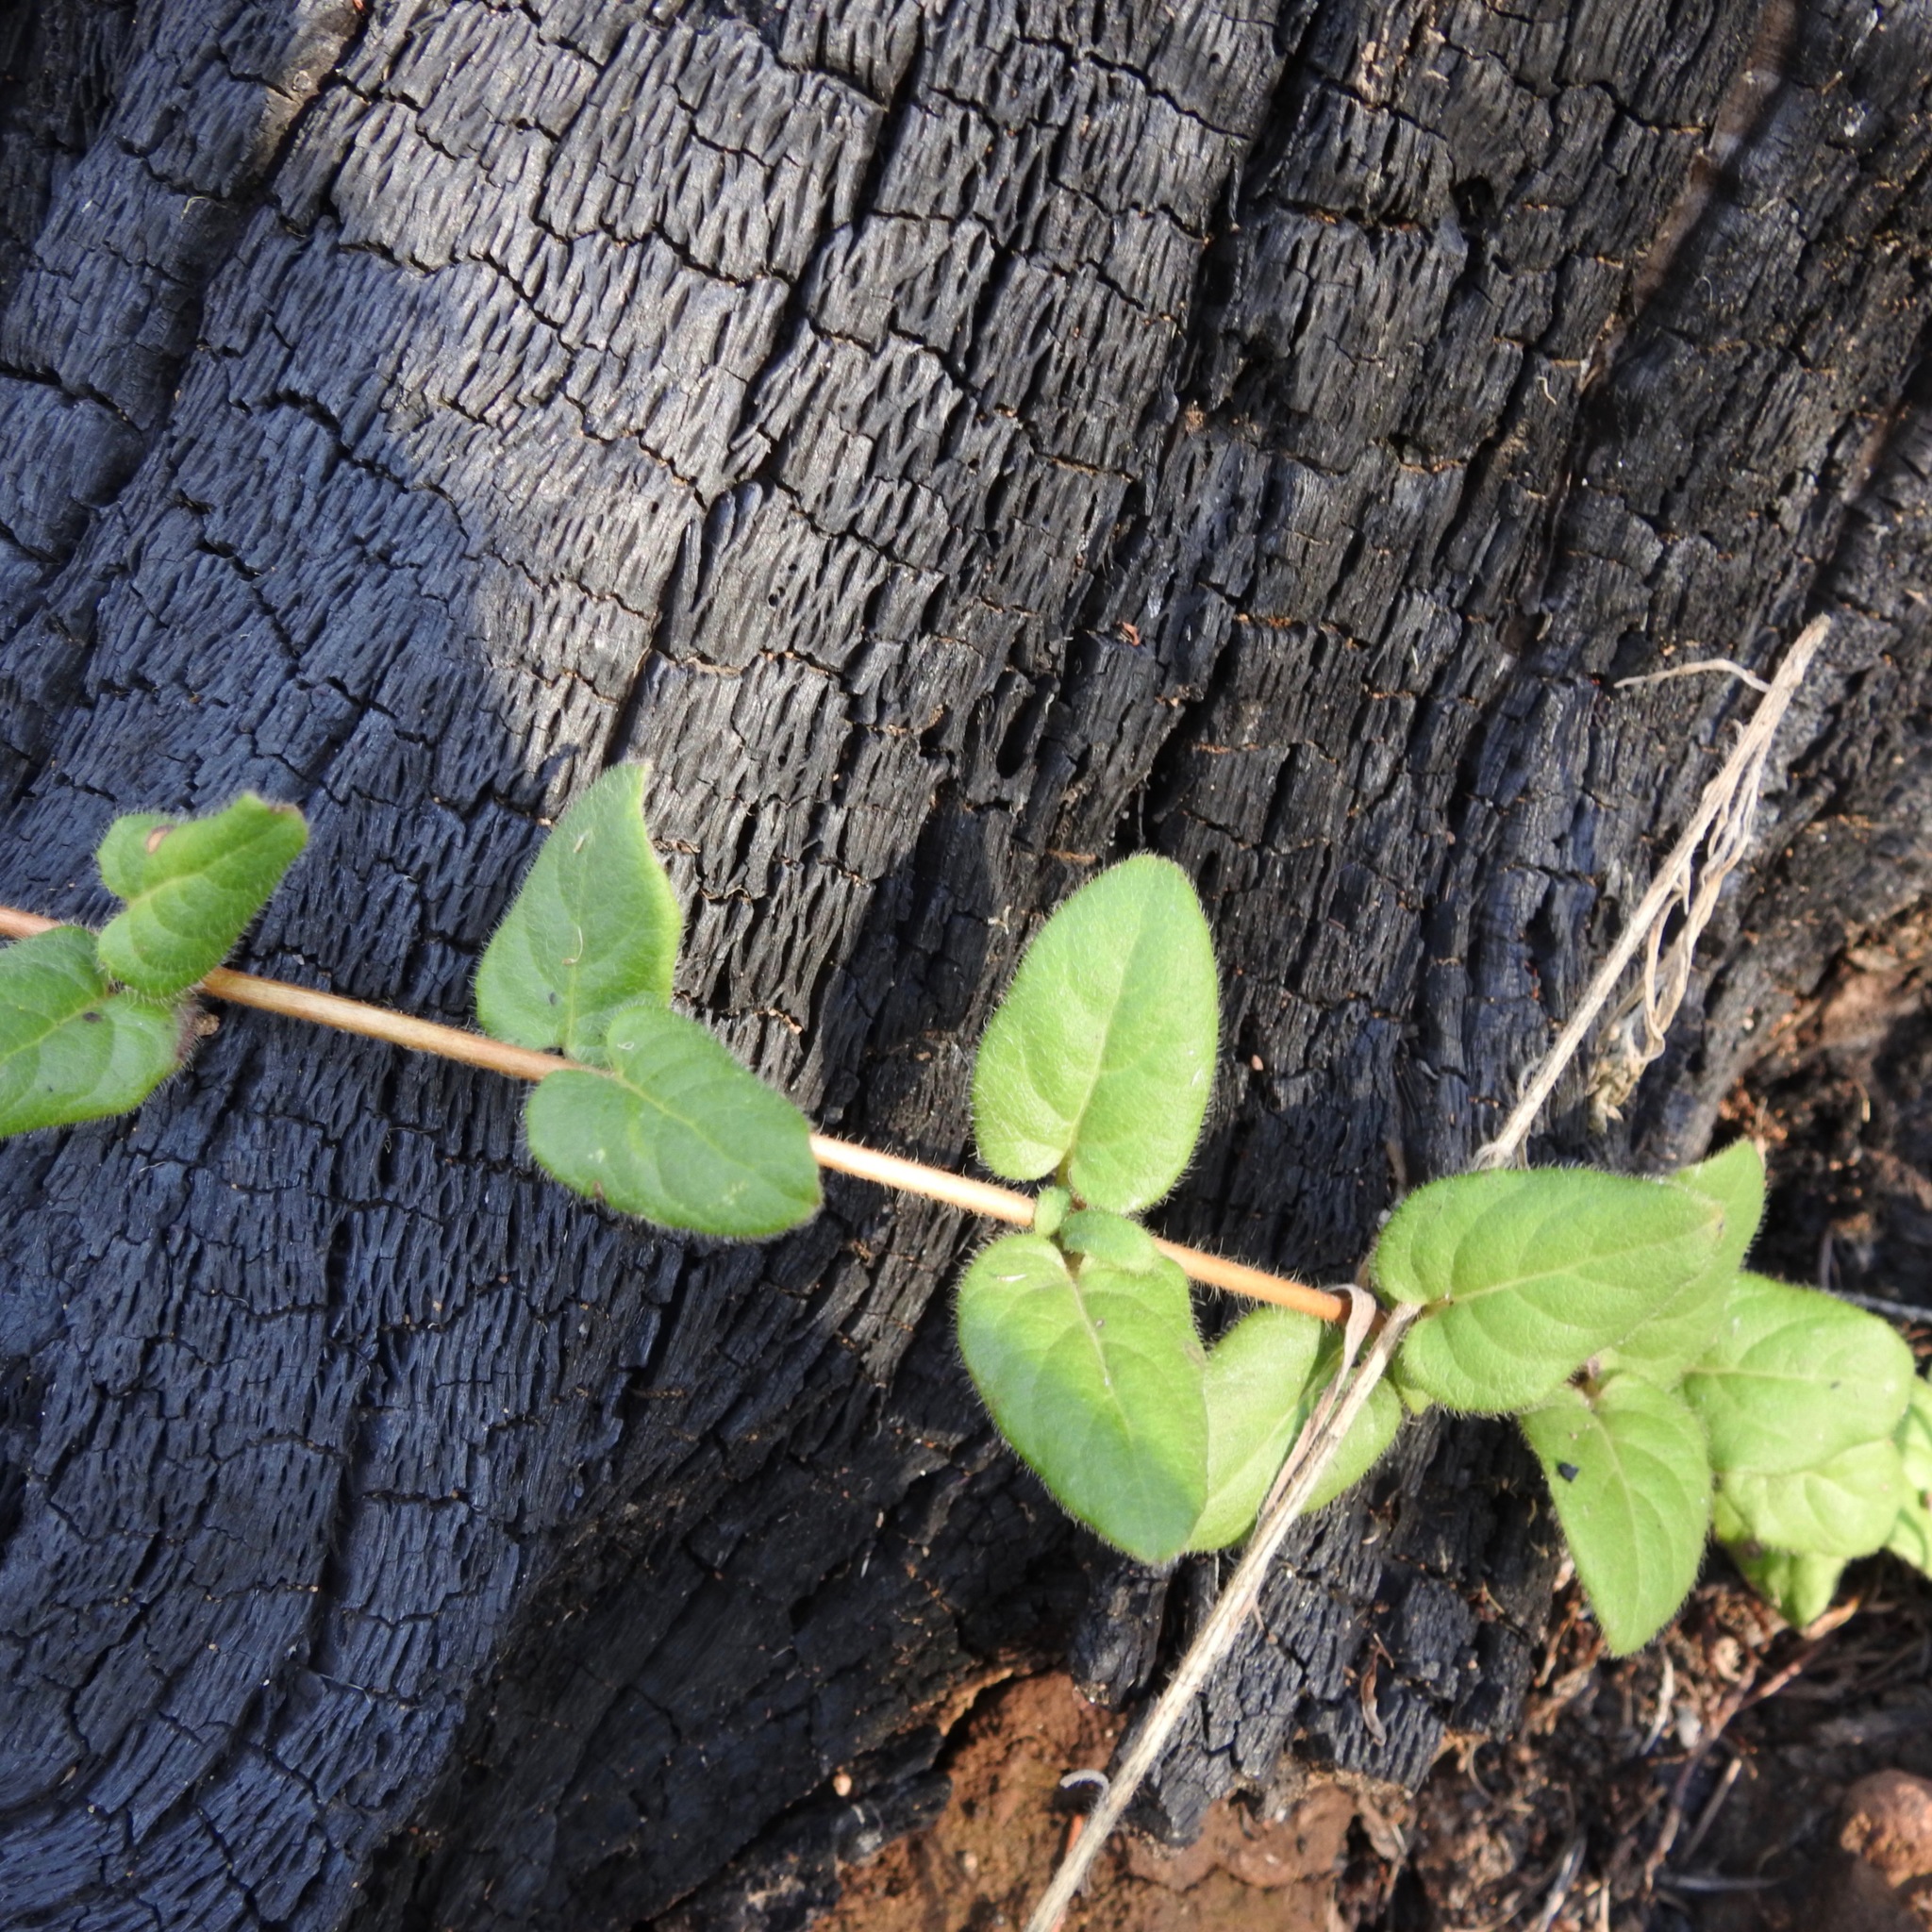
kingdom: Plantae
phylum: Tracheophyta
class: Magnoliopsida
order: Dipsacales
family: Caprifoliaceae
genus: Lonicera
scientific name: Lonicera hispidula
